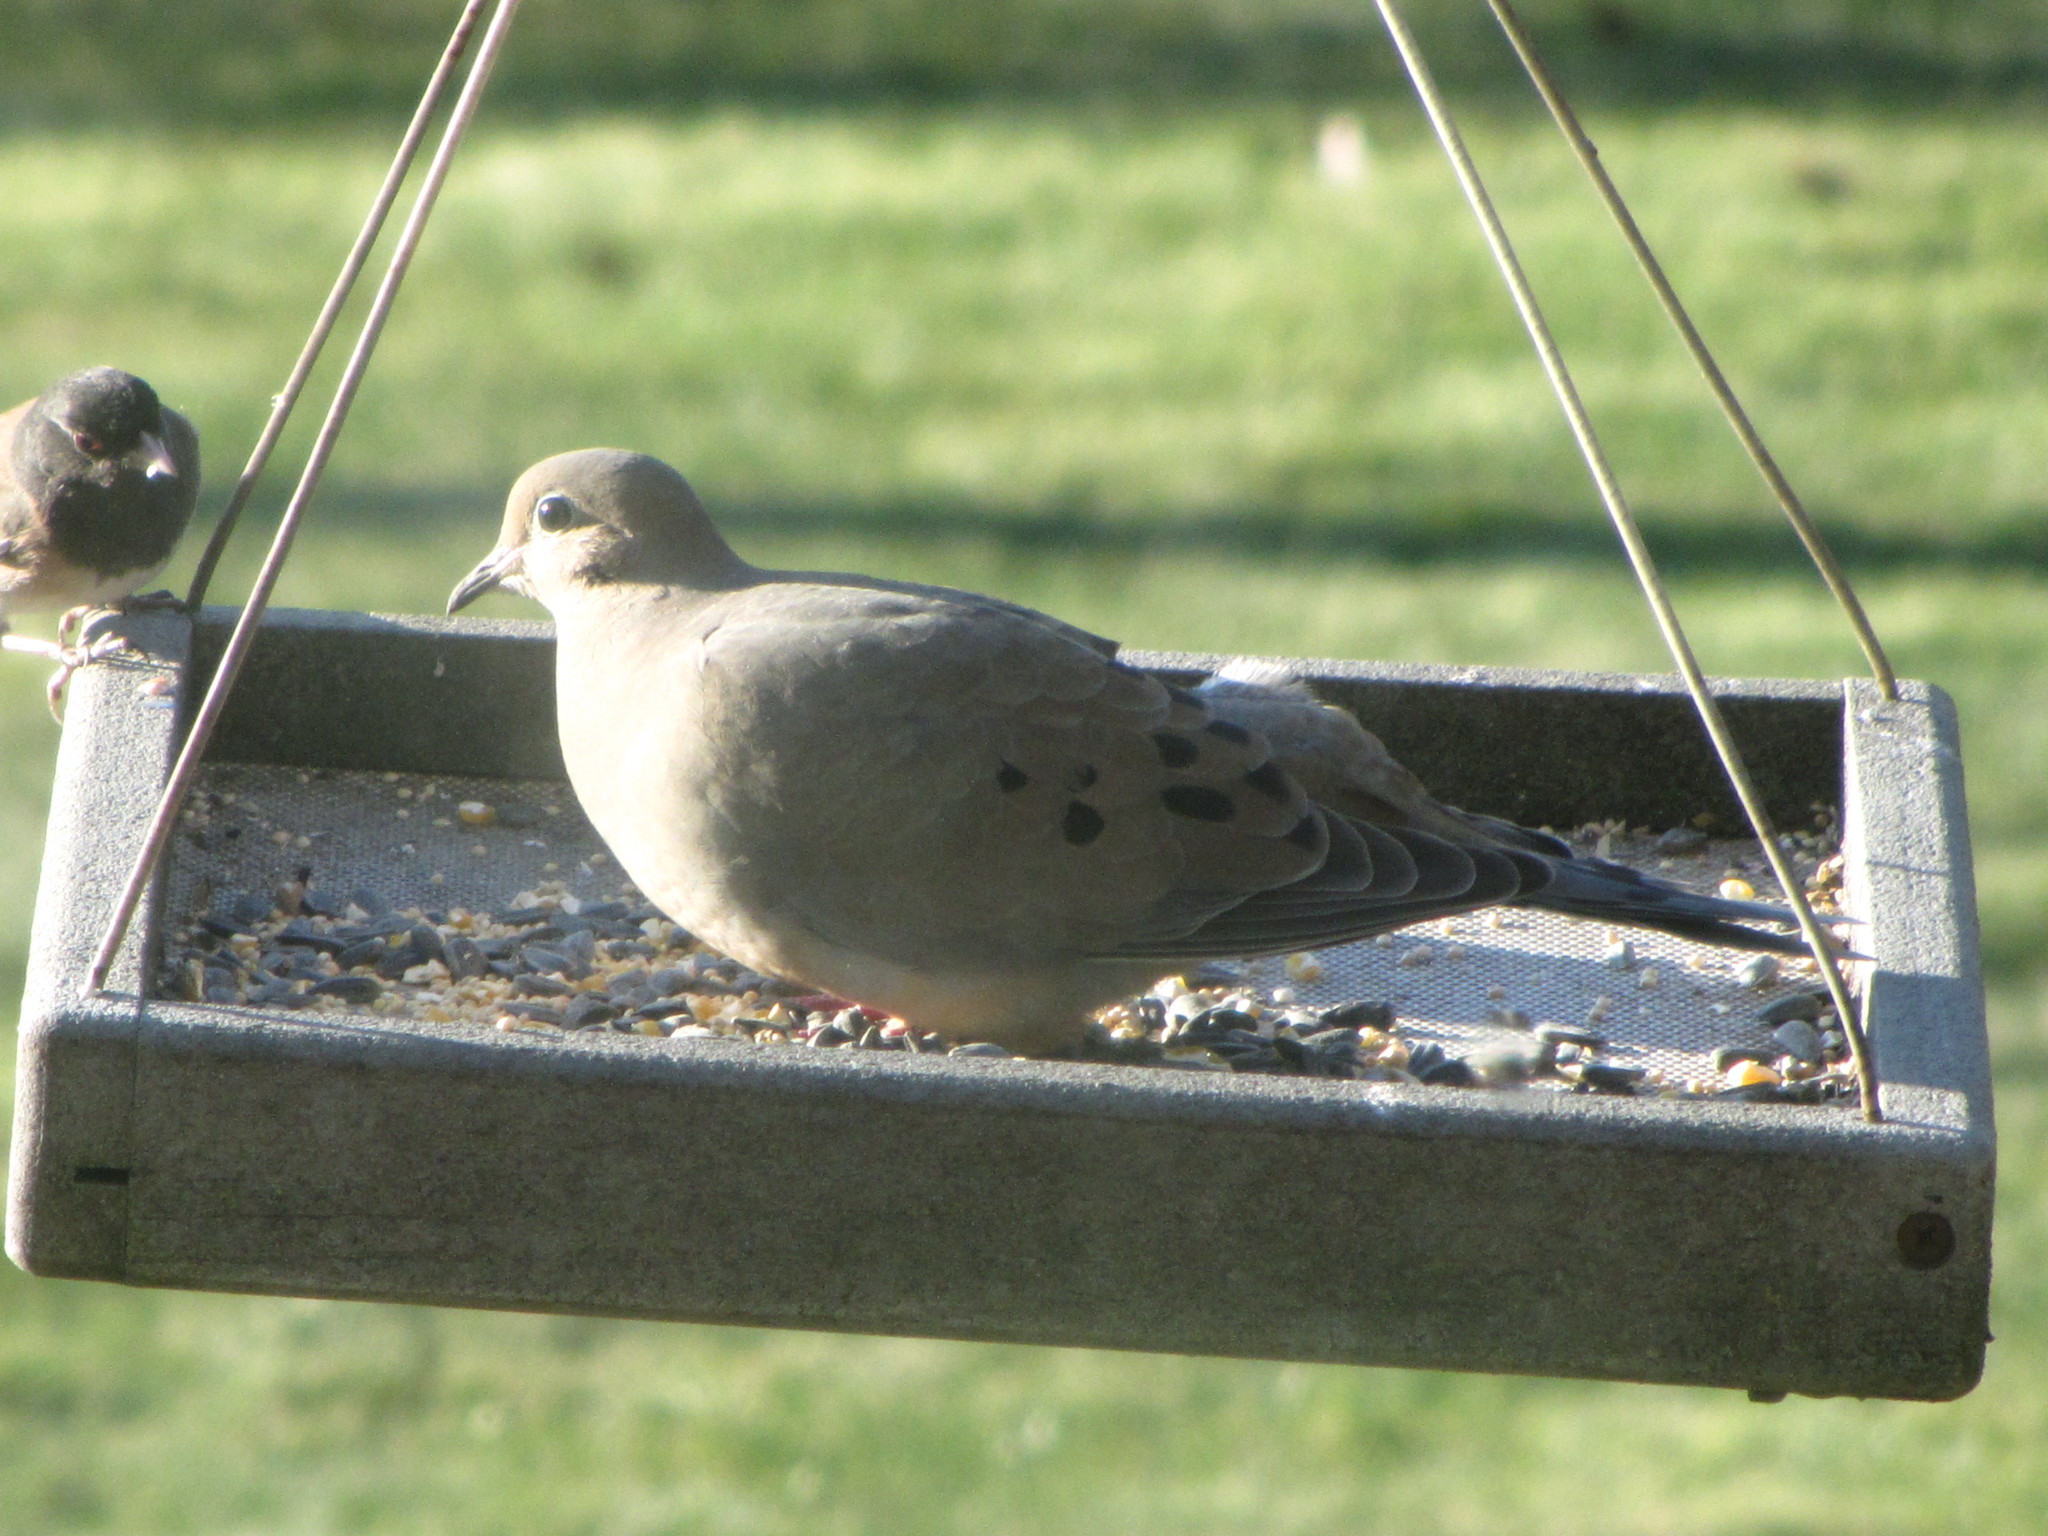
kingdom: Animalia
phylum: Chordata
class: Aves
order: Columbiformes
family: Columbidae
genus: Zenaida
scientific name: Zenaida macroura
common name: Mourning dove
